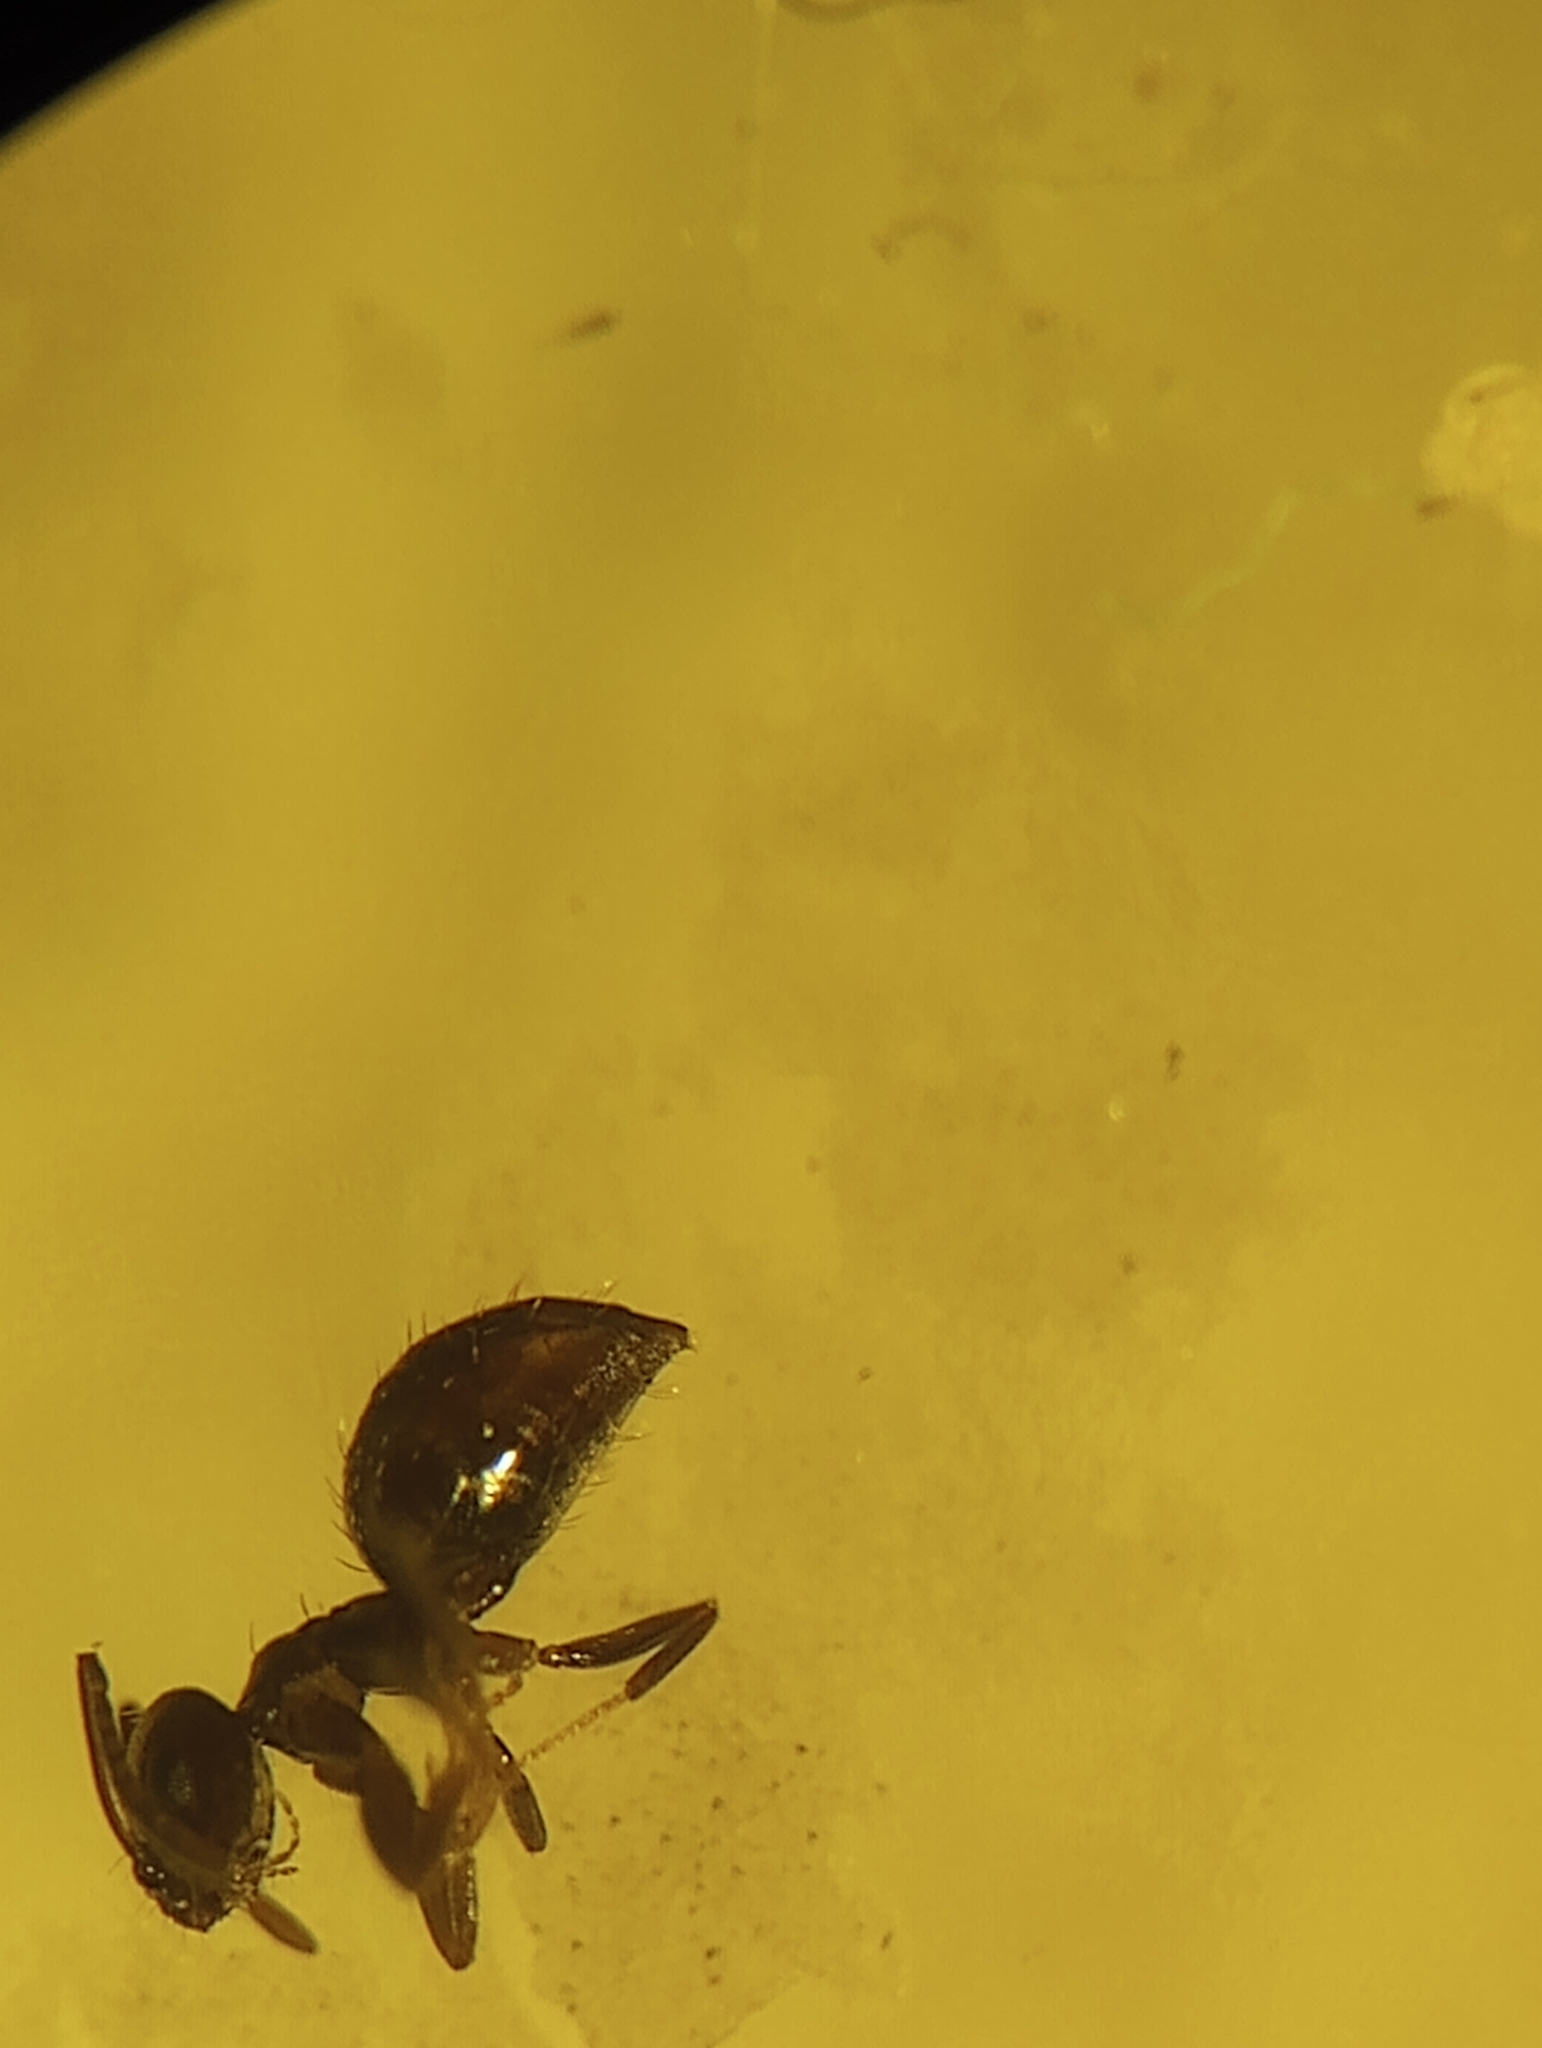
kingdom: Animalia
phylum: Arthropoda
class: Insecta
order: Hymenoptera
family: Formicidae
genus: Brachymyrmex
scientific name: Brachymyrmex patagonicus
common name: Dark rover ant
